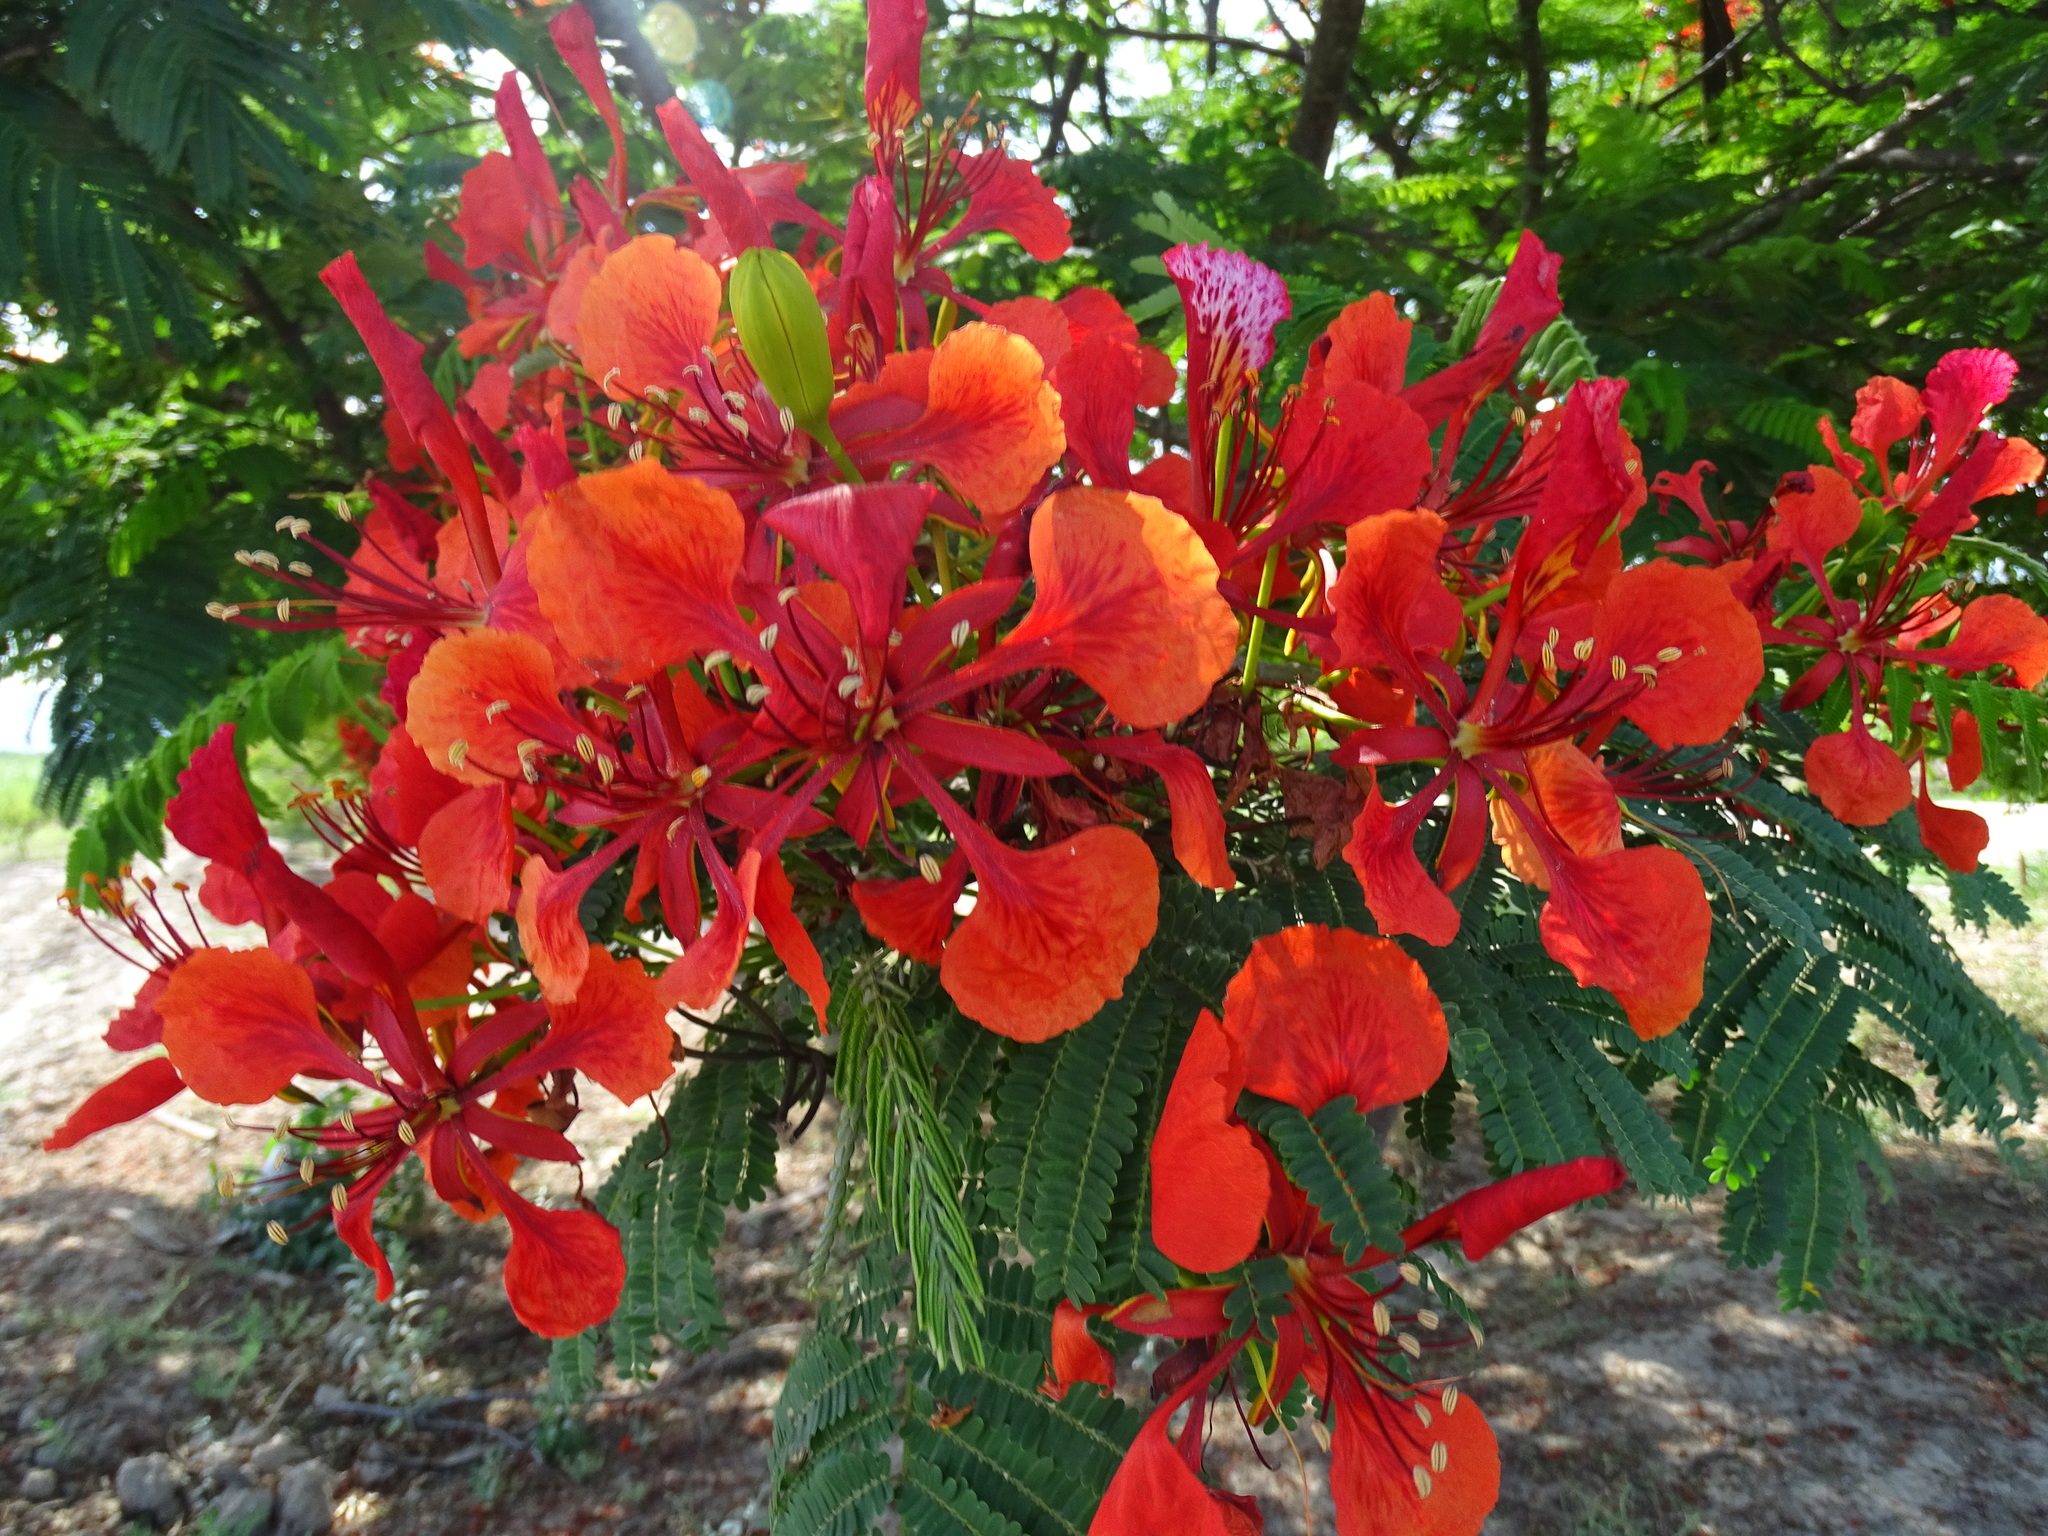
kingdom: Plantae
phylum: Tracheophyta
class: Magnoliopsida
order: Fabales
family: Fabaceae
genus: Delonix
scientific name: Delonix regia
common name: Royal poinciana
